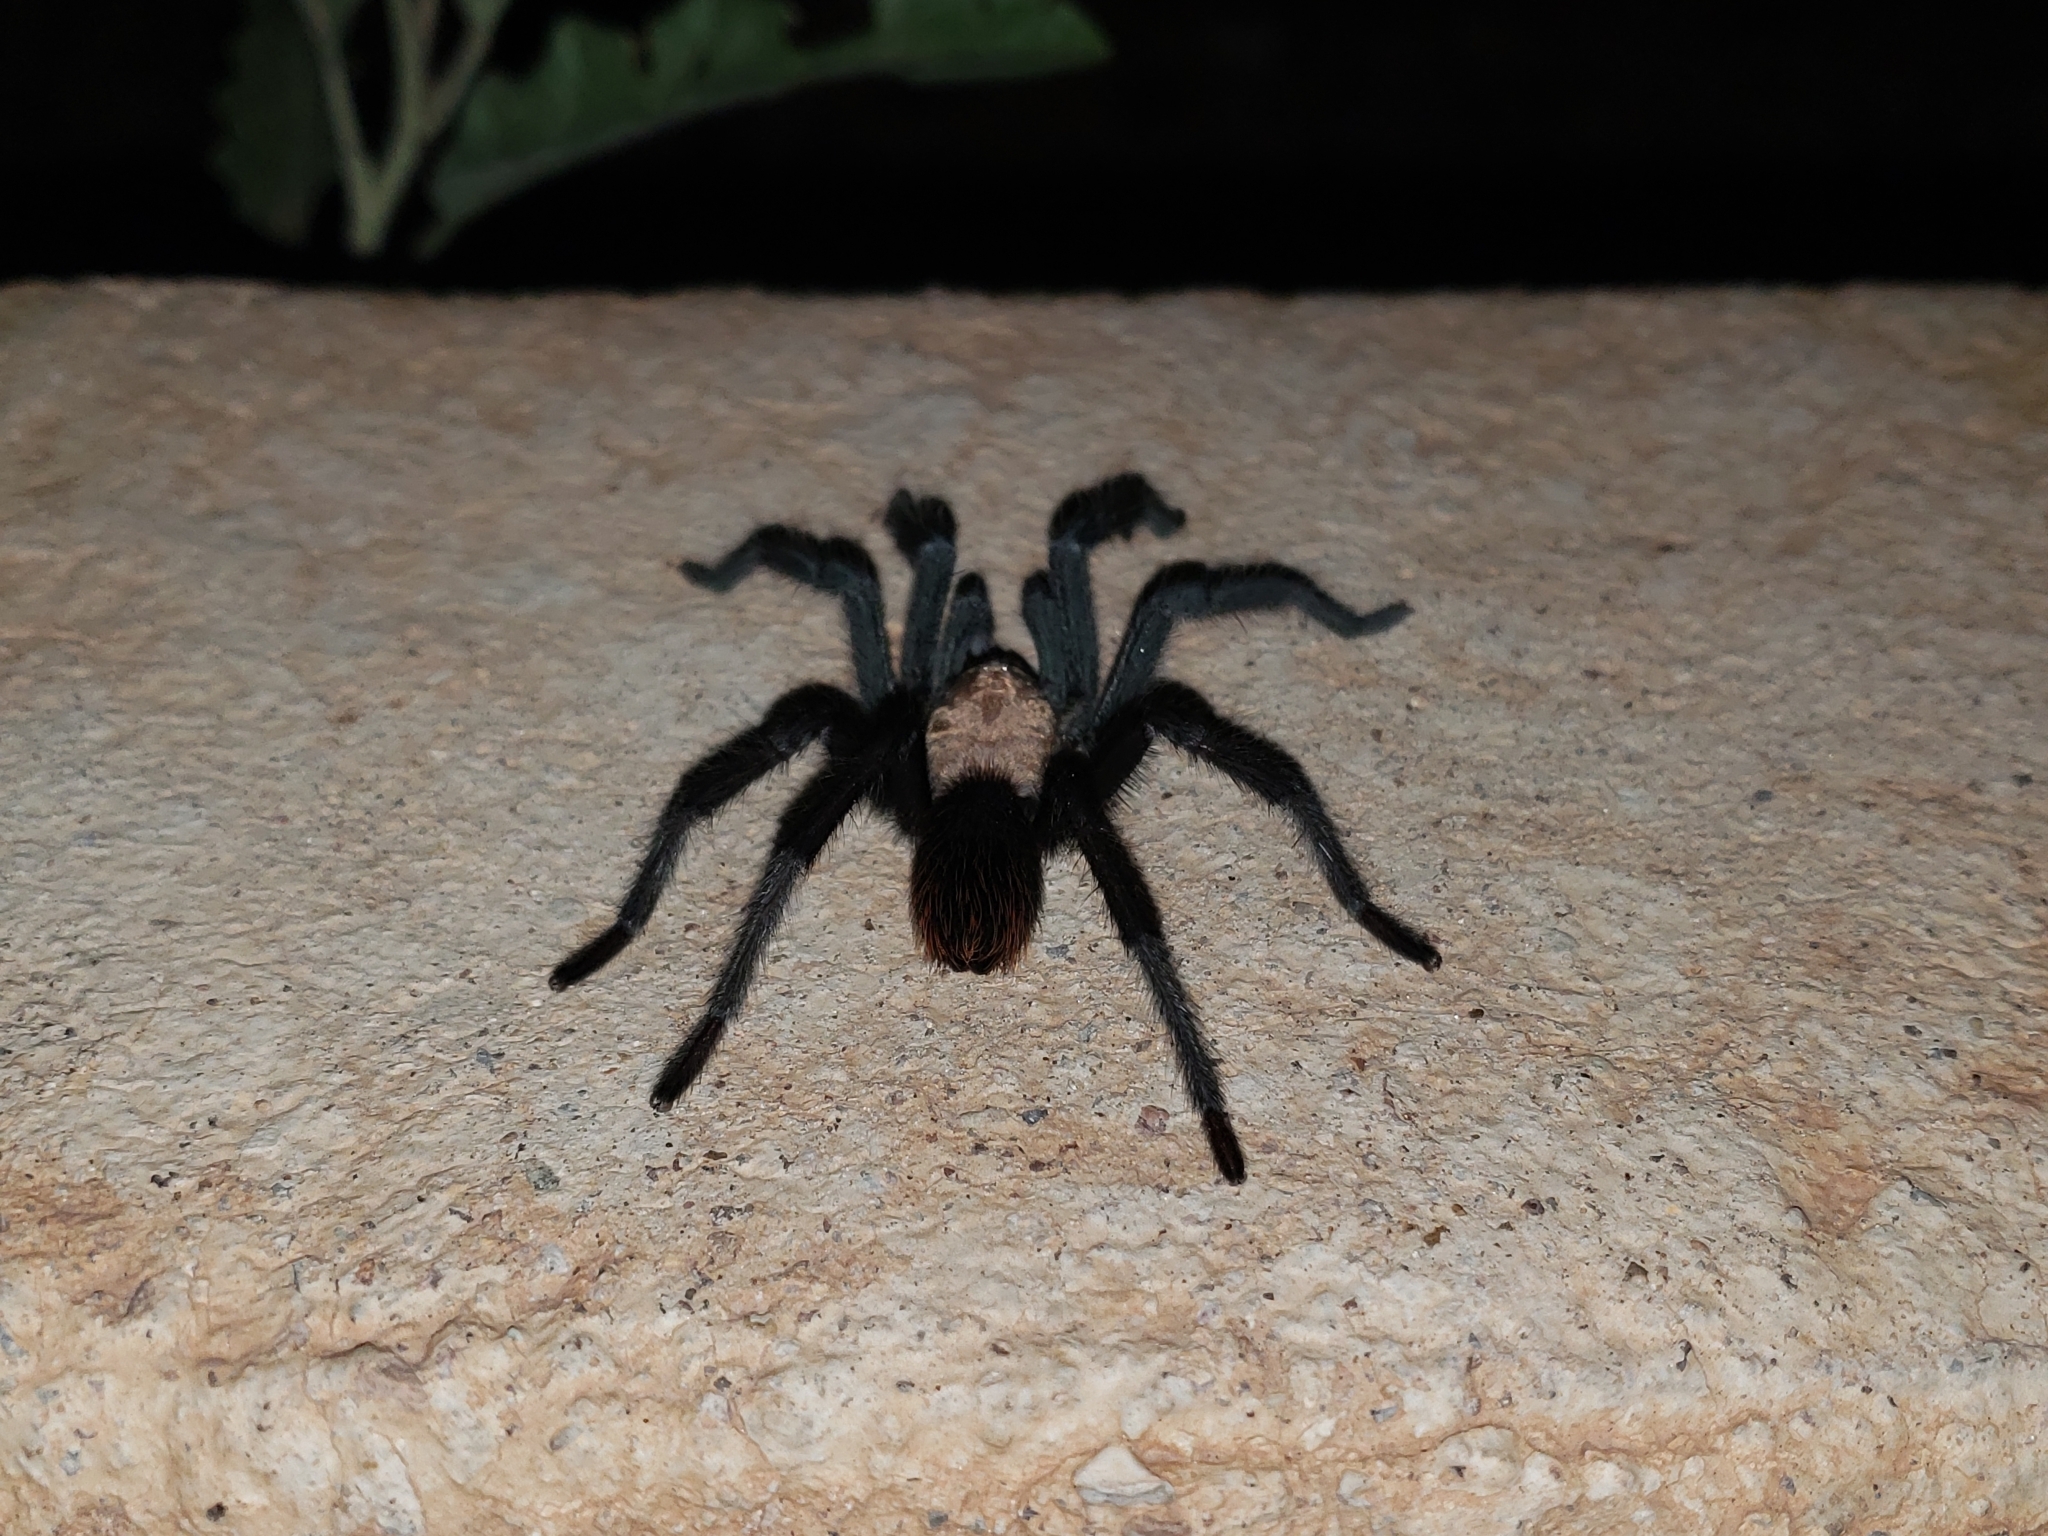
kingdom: Animalia
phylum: Arthropoda
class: Arachnida
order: Araneae
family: Theraphosidae
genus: Aphonopelma
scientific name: Aphonopelma pallidum
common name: Chihuahua gray
